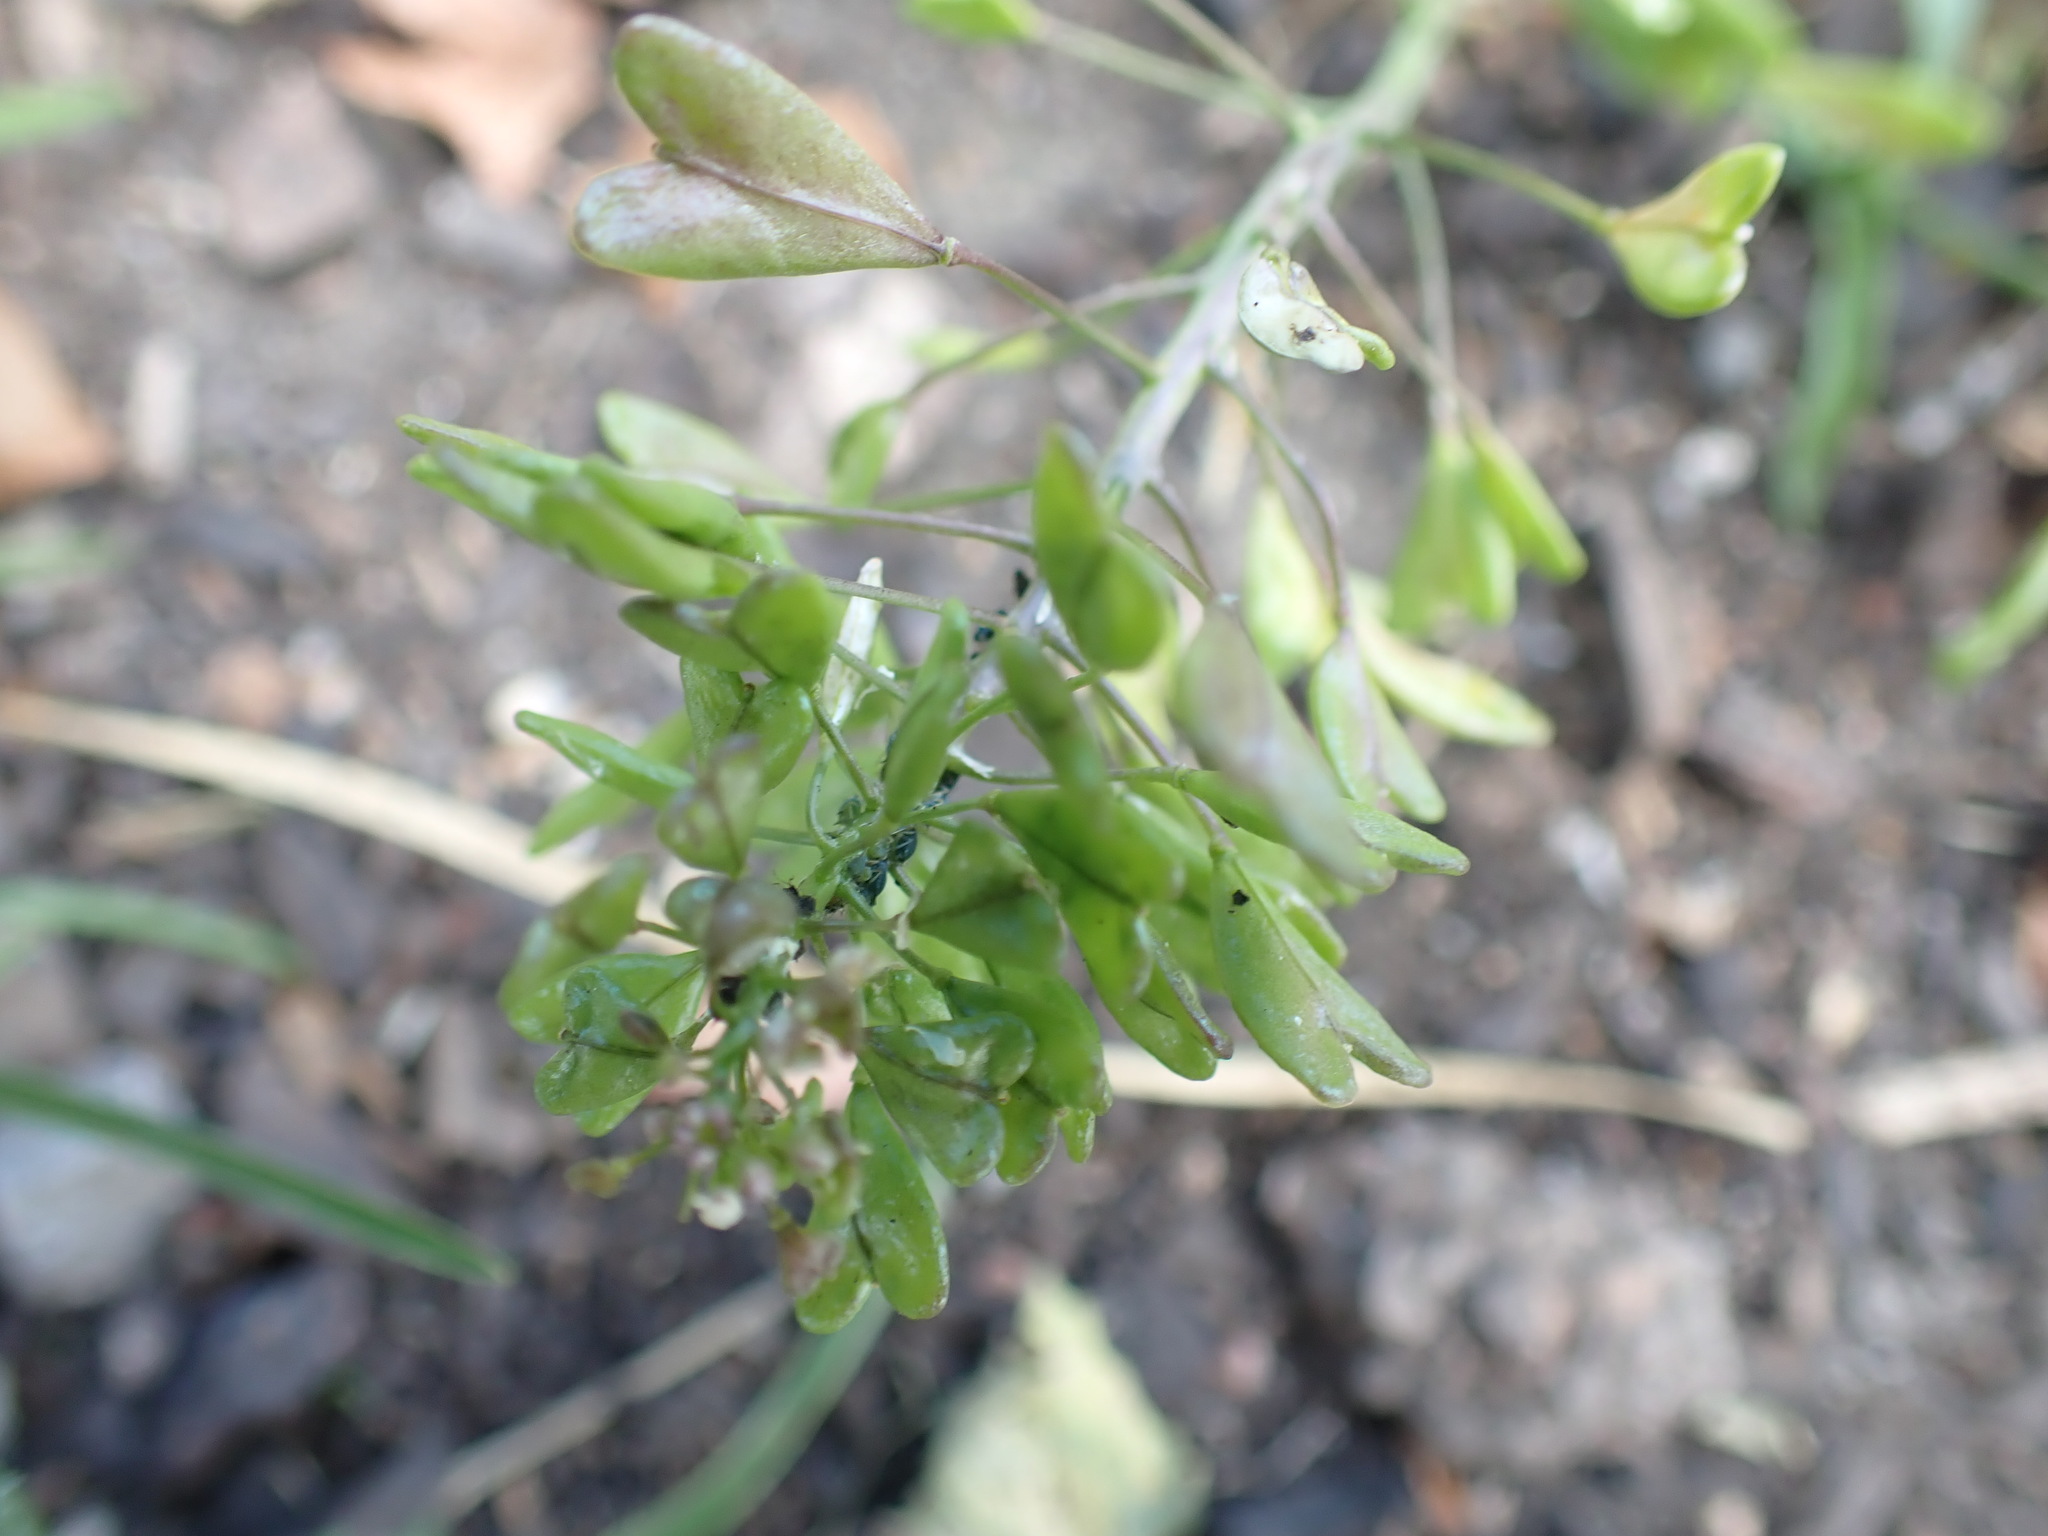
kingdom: Plantae
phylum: Tracheophyta
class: Magnoliopsida
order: Brassicales
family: Brassicaceae
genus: Capsella
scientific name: Capsella bursa-pastoris
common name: Shepherd's purse
